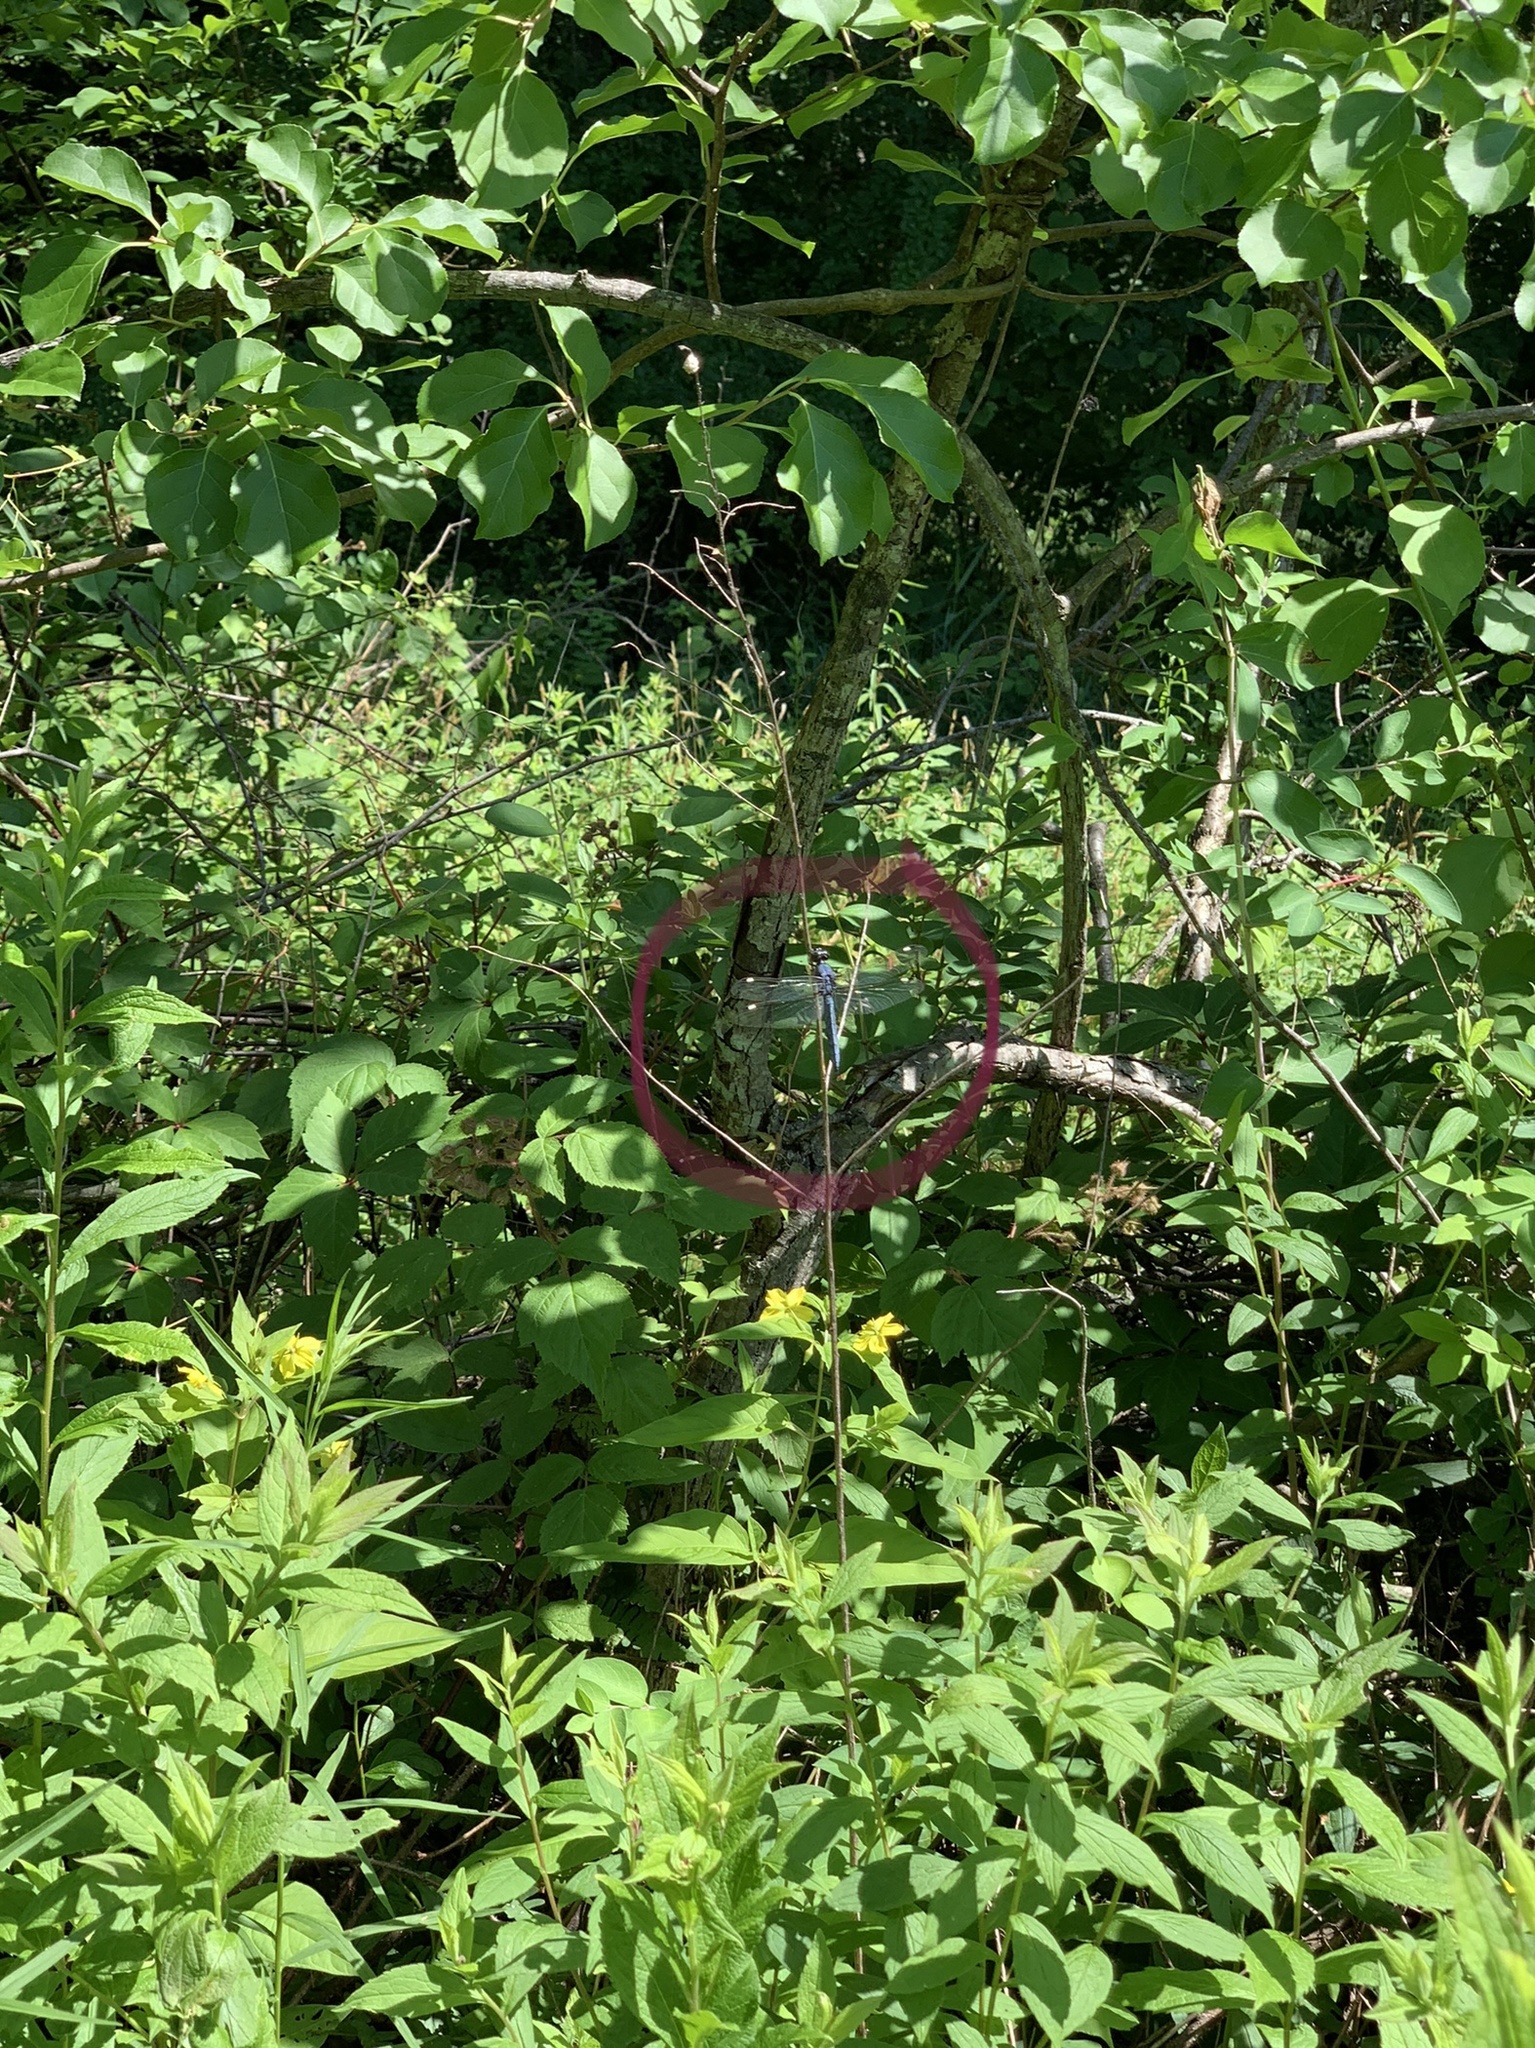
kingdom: Animalia
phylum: Arthropoda
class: Insecta
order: Odonata
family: Libellulidae
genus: Libellula
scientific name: Libellula cyanea
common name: Spangled skimmer
